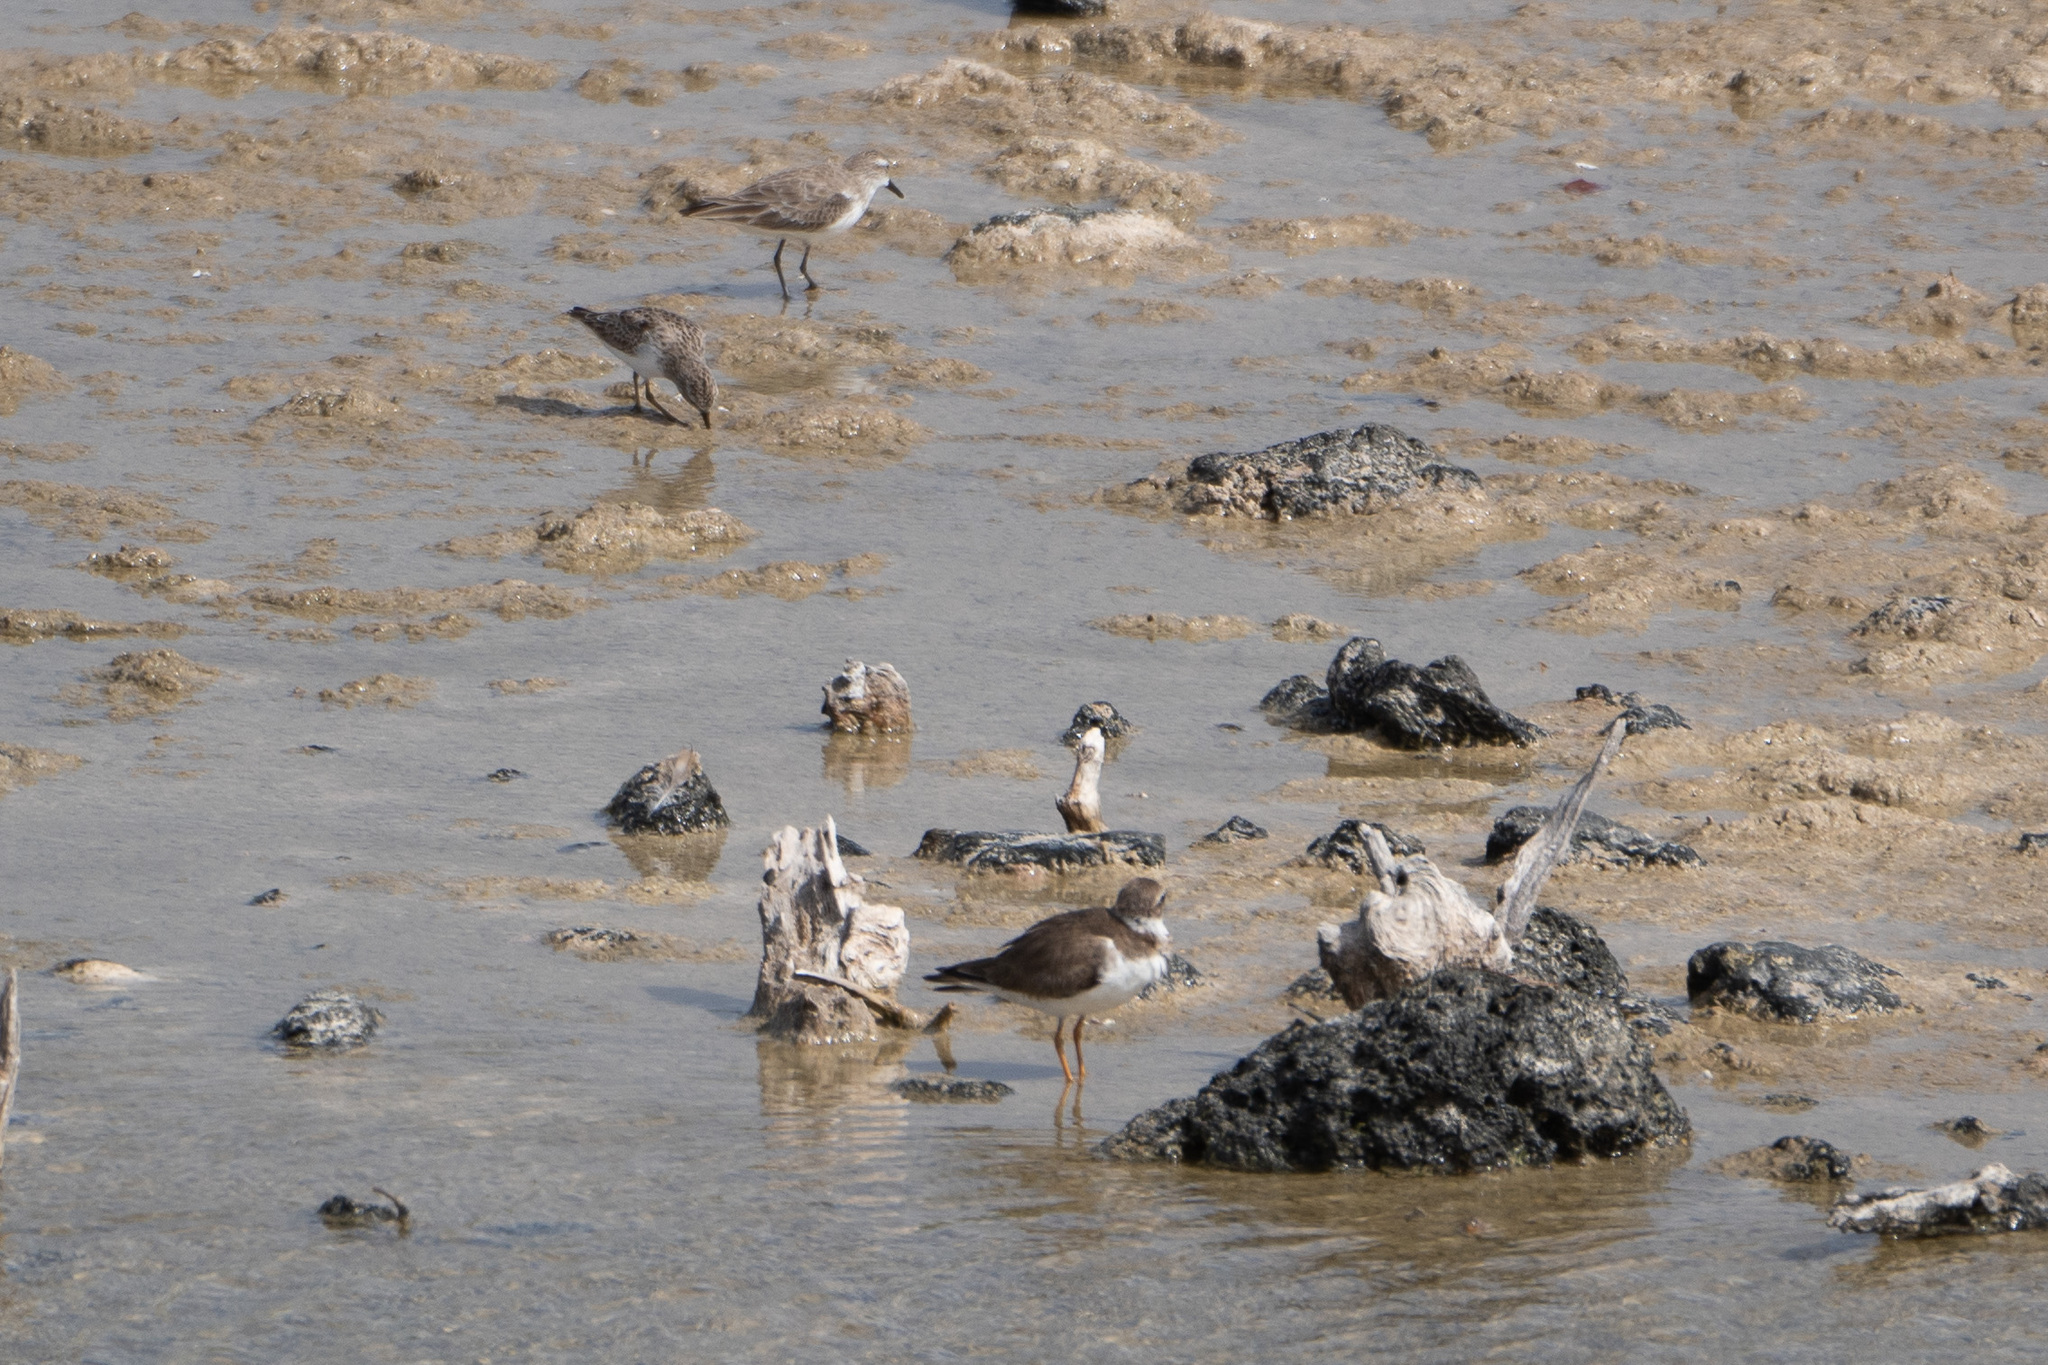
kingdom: Animalia
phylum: Chordata
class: Aves
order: Charadriiformes
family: Charadriidae
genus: Charadrius
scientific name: Charadrius semipalmatus
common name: Semipalmated plover
